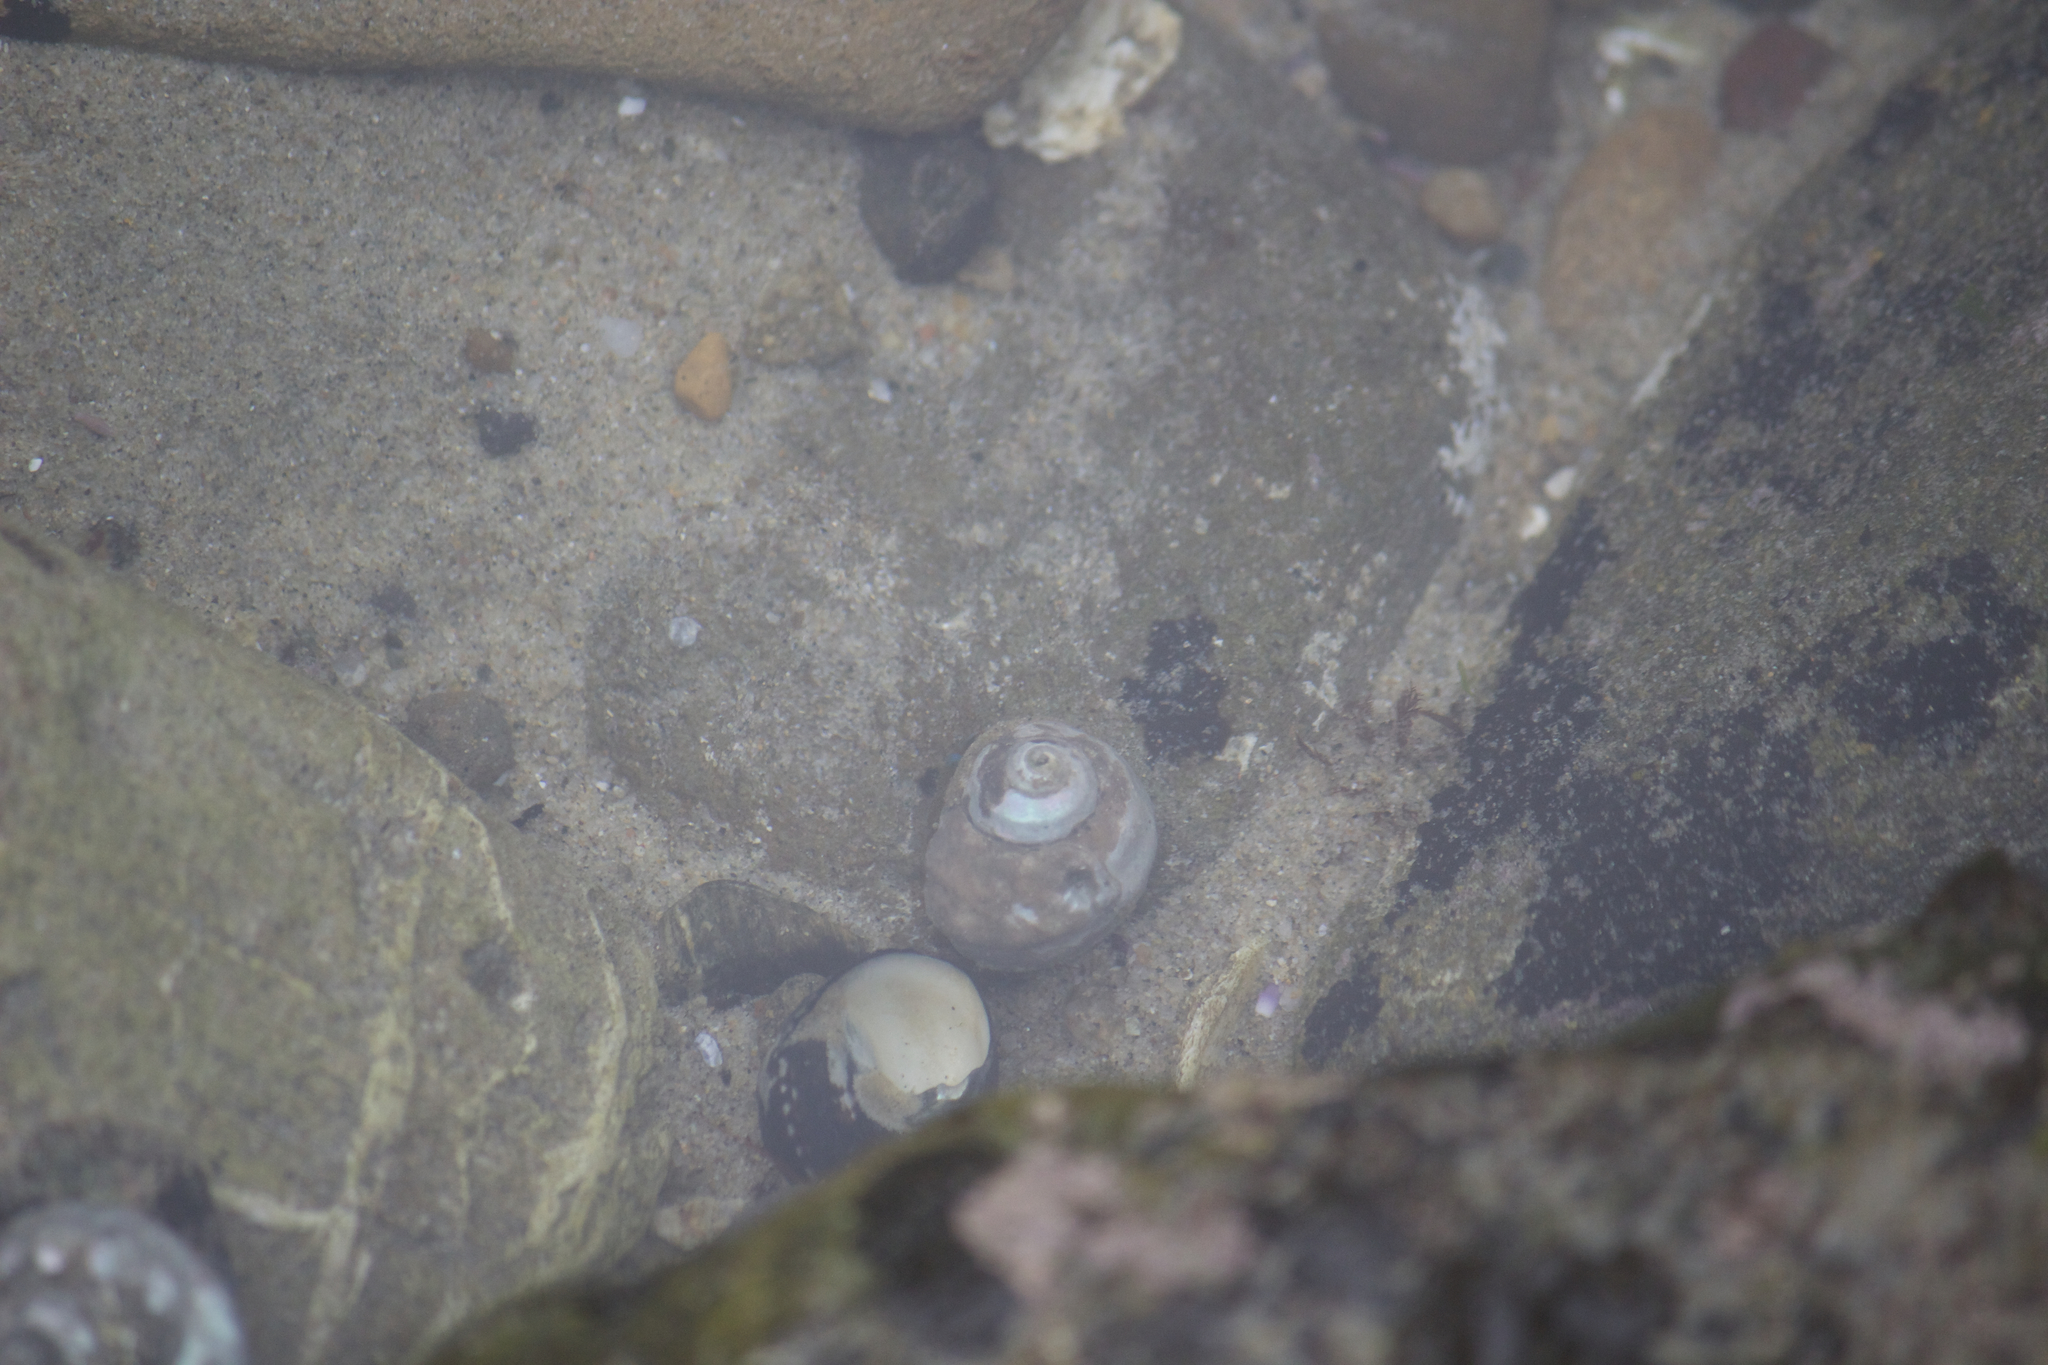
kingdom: Animalia
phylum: Mollusca
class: Gastropoda
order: Trochida
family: Tegulidae
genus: Tegula
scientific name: Tegula aureotincta
